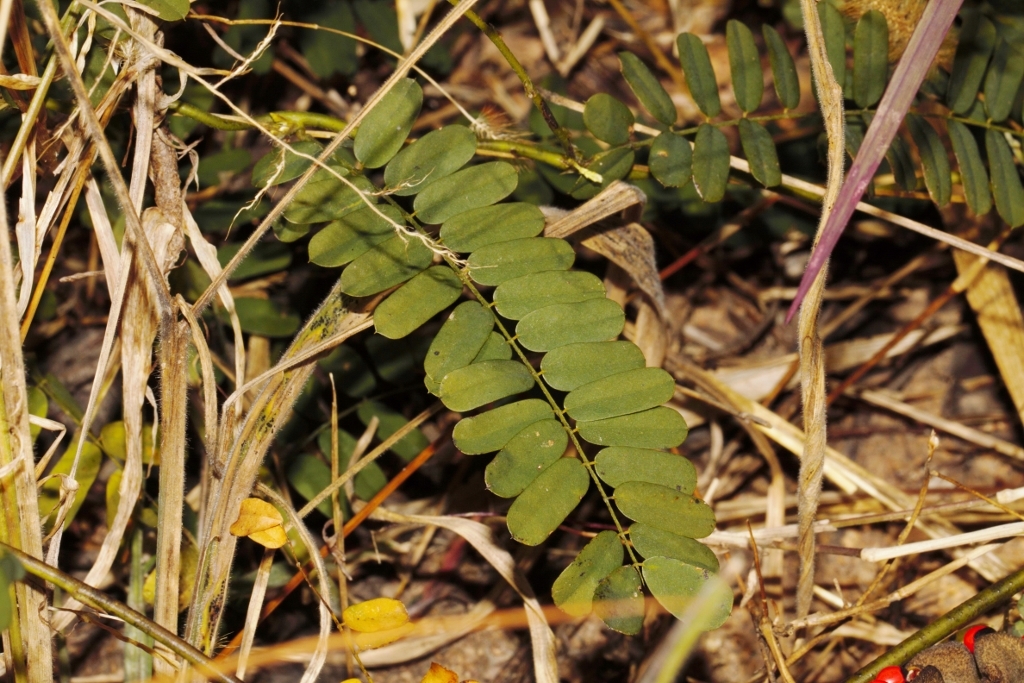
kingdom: Plantae
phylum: Tracheophyta
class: Magnoliopsida
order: Fabales
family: Fabaceae
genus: Abrus
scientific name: Abrus precatorius
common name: Rosarypea
